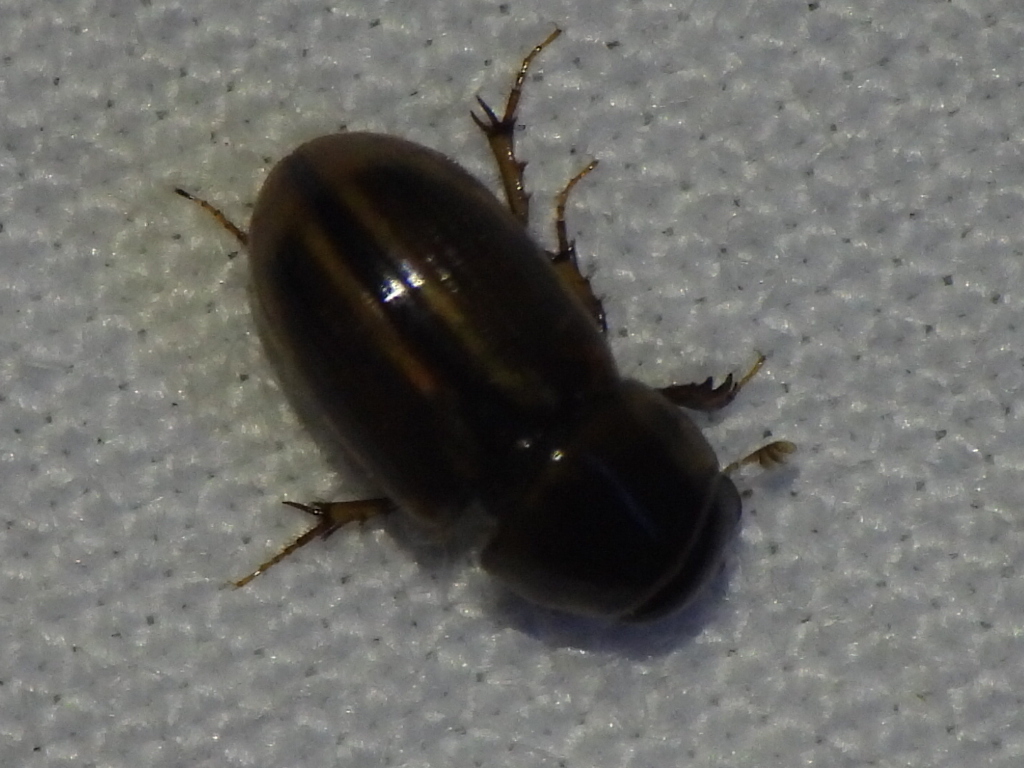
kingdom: Animalia
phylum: Arthropoda
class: Insecta
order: Coleoptera
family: Scarabaeidae
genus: Labarrus
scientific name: Labarrus lividus
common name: Scarab beetle
